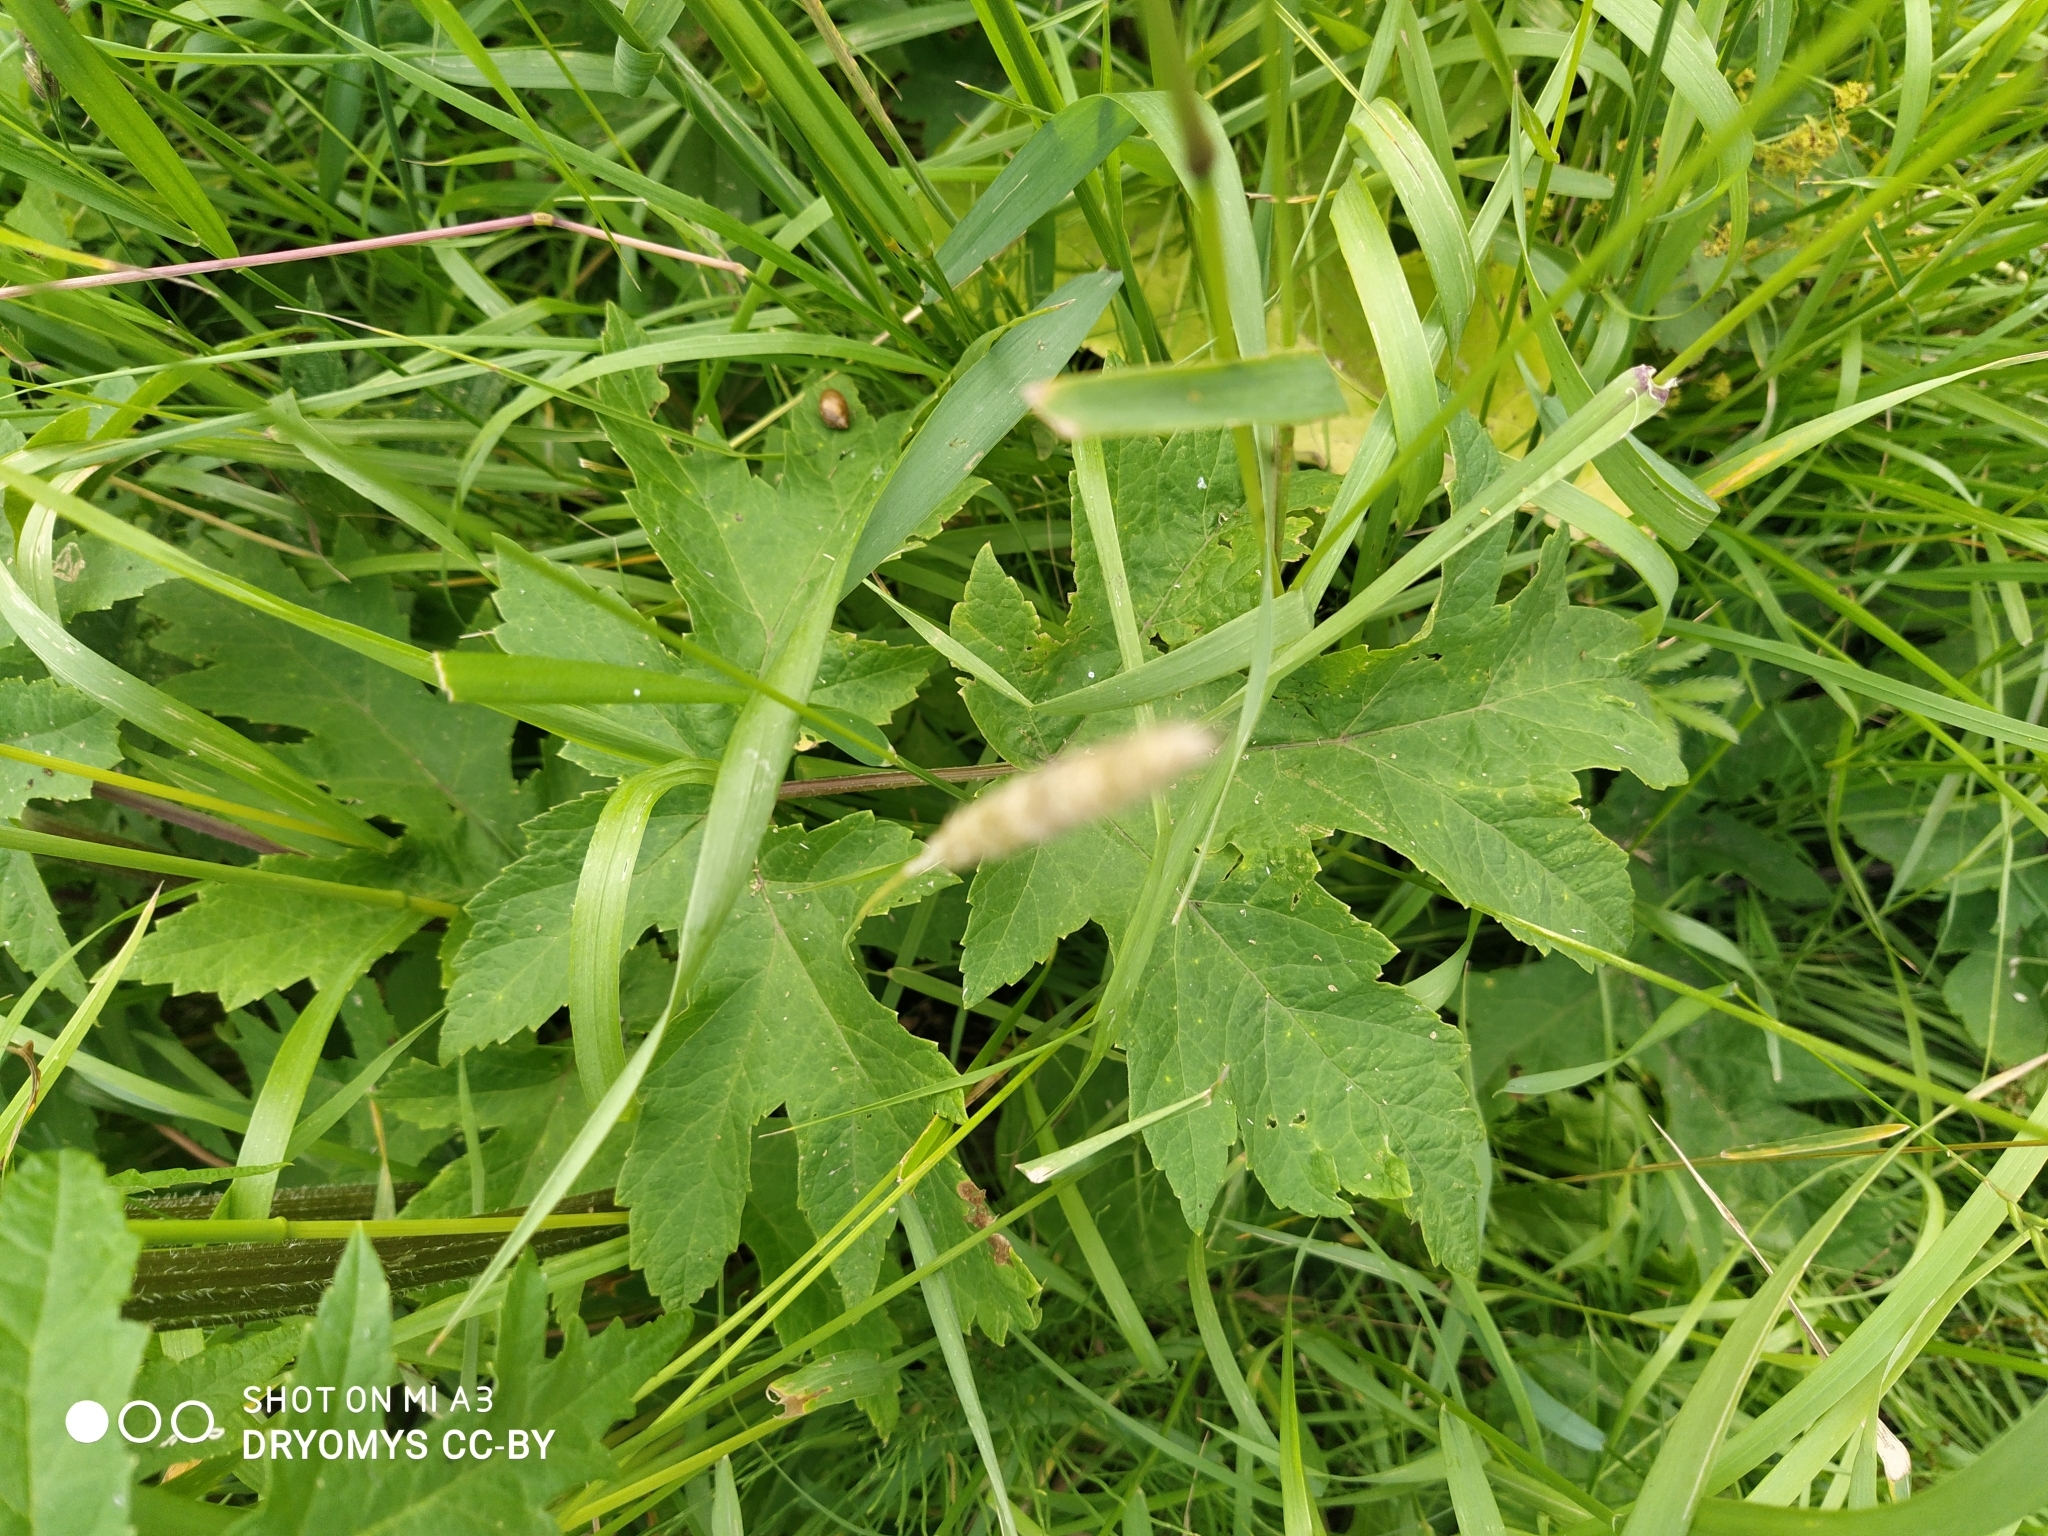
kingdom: Plantae
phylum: Tracheophyta
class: Magnoliopsida
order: Apiales
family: Apiaceae
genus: Heracleum
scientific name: Heracleum sphondylium
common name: Hogweed
